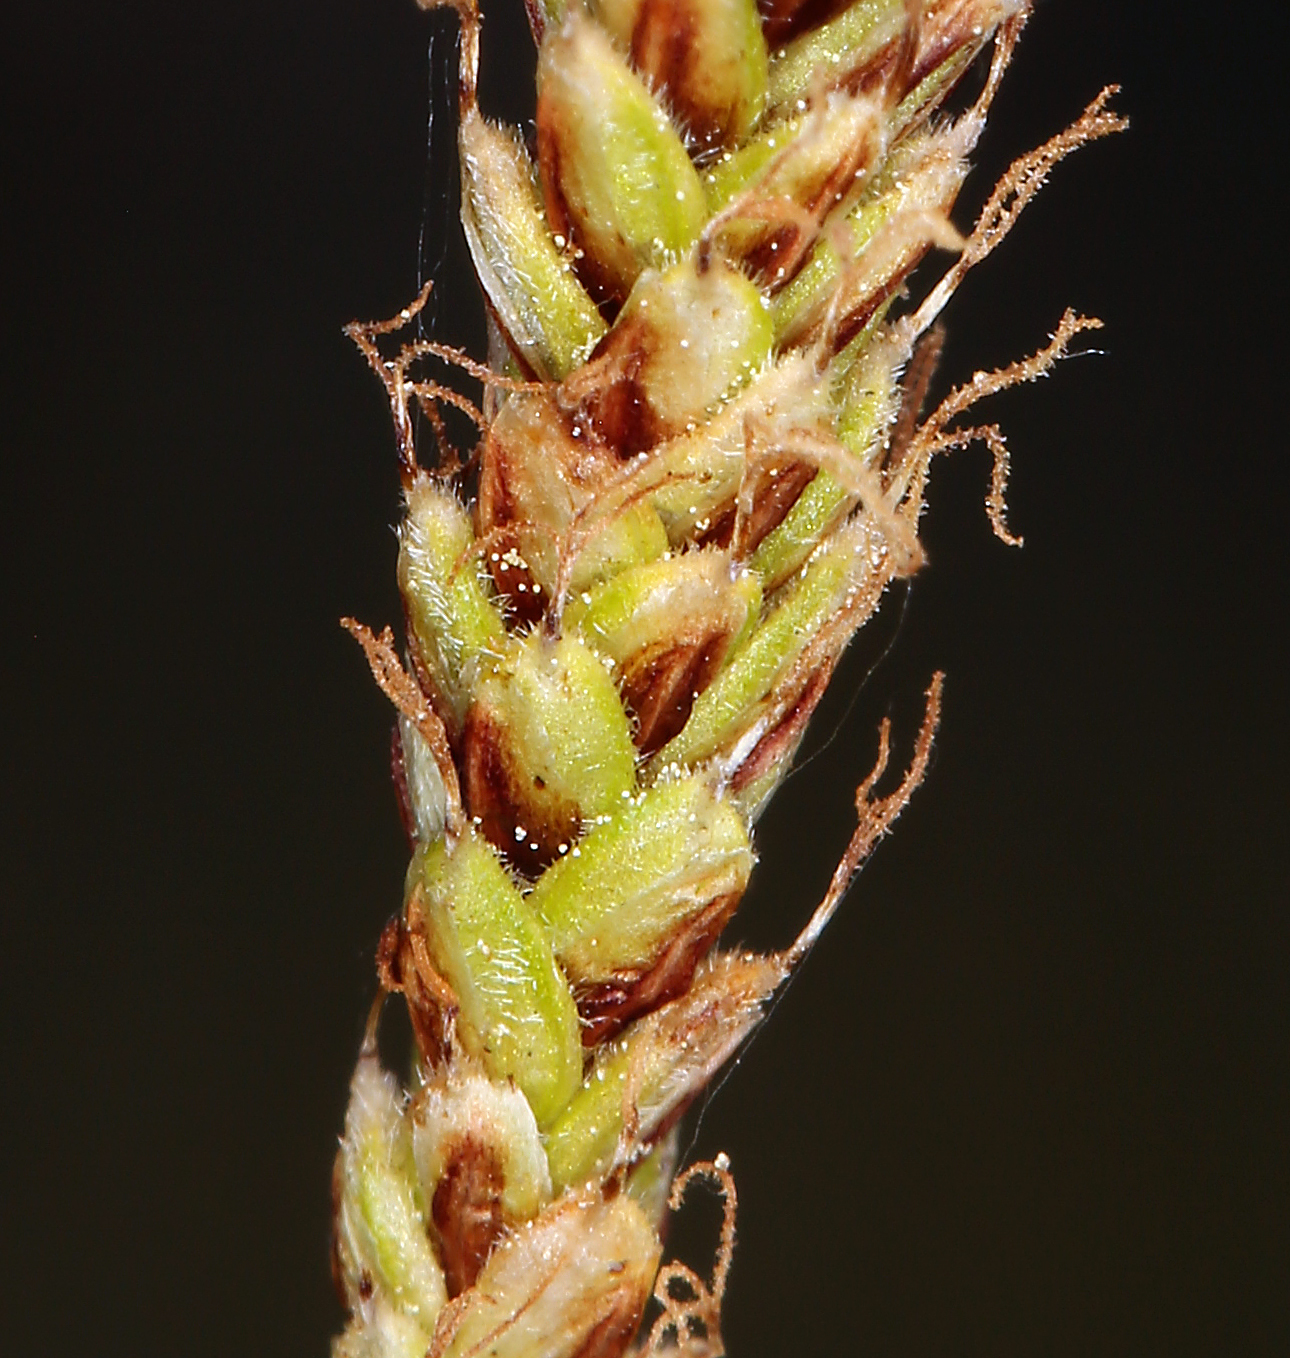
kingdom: Plantae
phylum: Tracheophyta
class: Liliopsida
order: Poales
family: Cyperaceae
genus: Carex
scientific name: Carex scirpoidea
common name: Canada single-spike sedge
